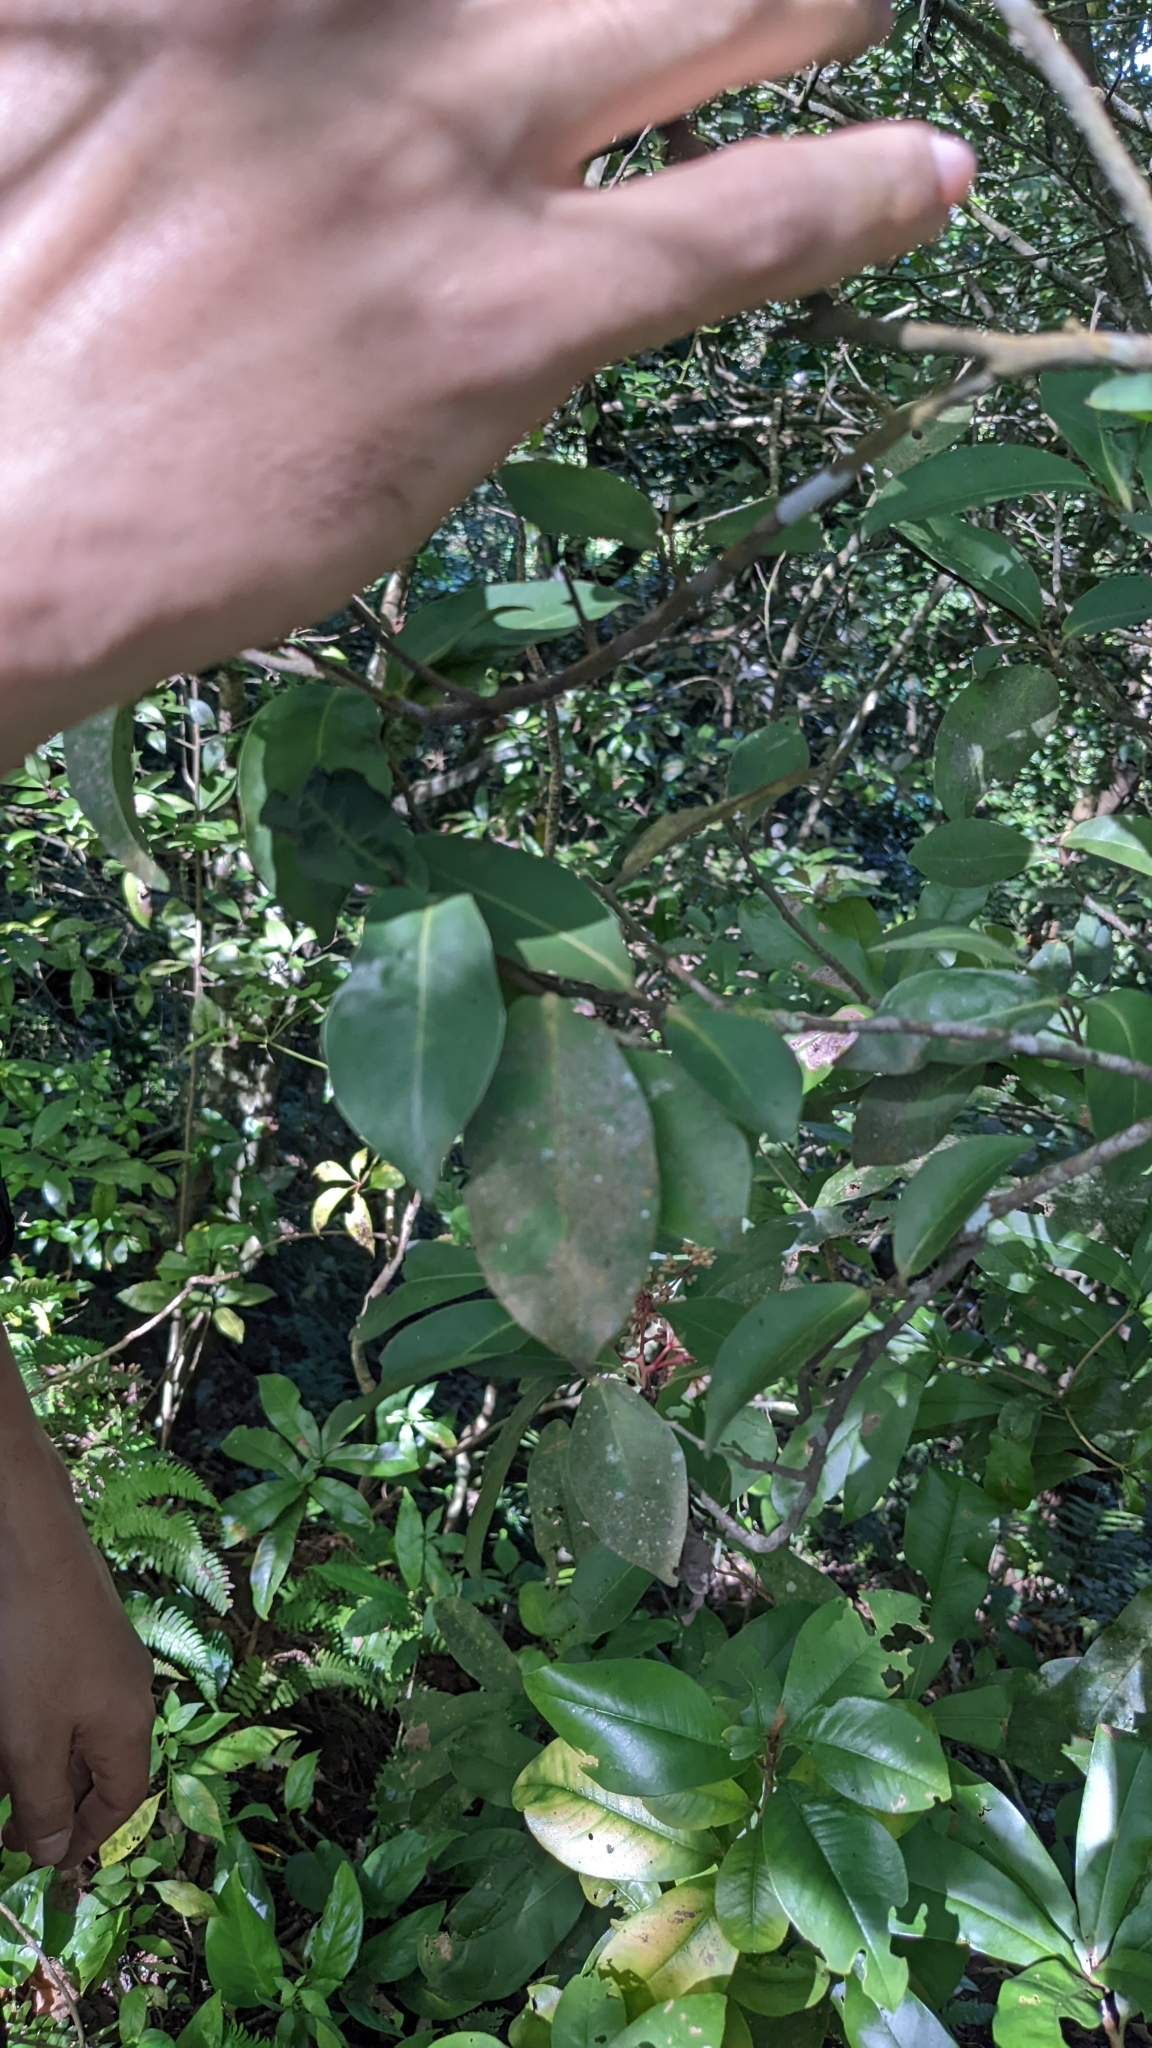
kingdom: Plantae
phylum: Tracheophyta
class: Magnoliopsida
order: Ericales
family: Primulaceae
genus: Ardisia
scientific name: Ardisia compressa
